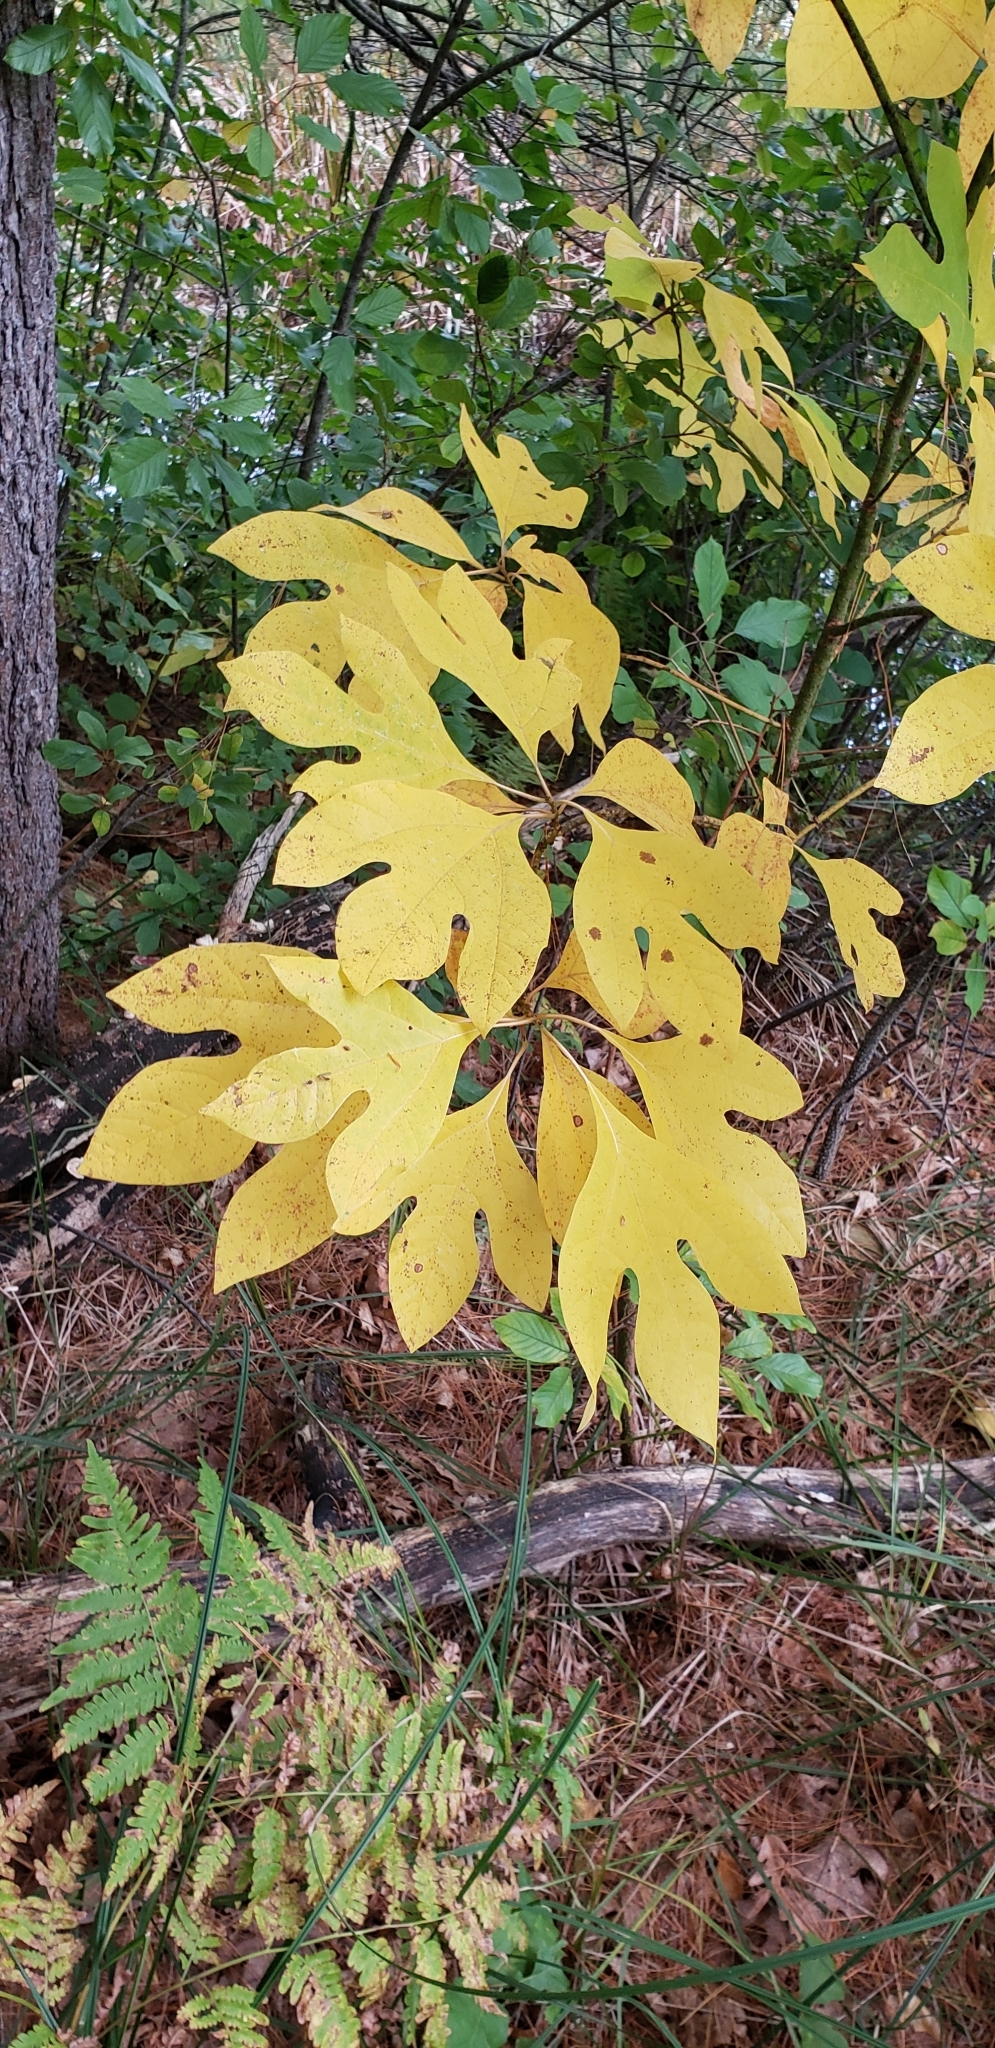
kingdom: Plantae
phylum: Tracheophyta
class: Magnoliopsida
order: Laurales
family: Lauraceae
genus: Sassafras
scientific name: Sassafras albidum
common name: Sassafras
